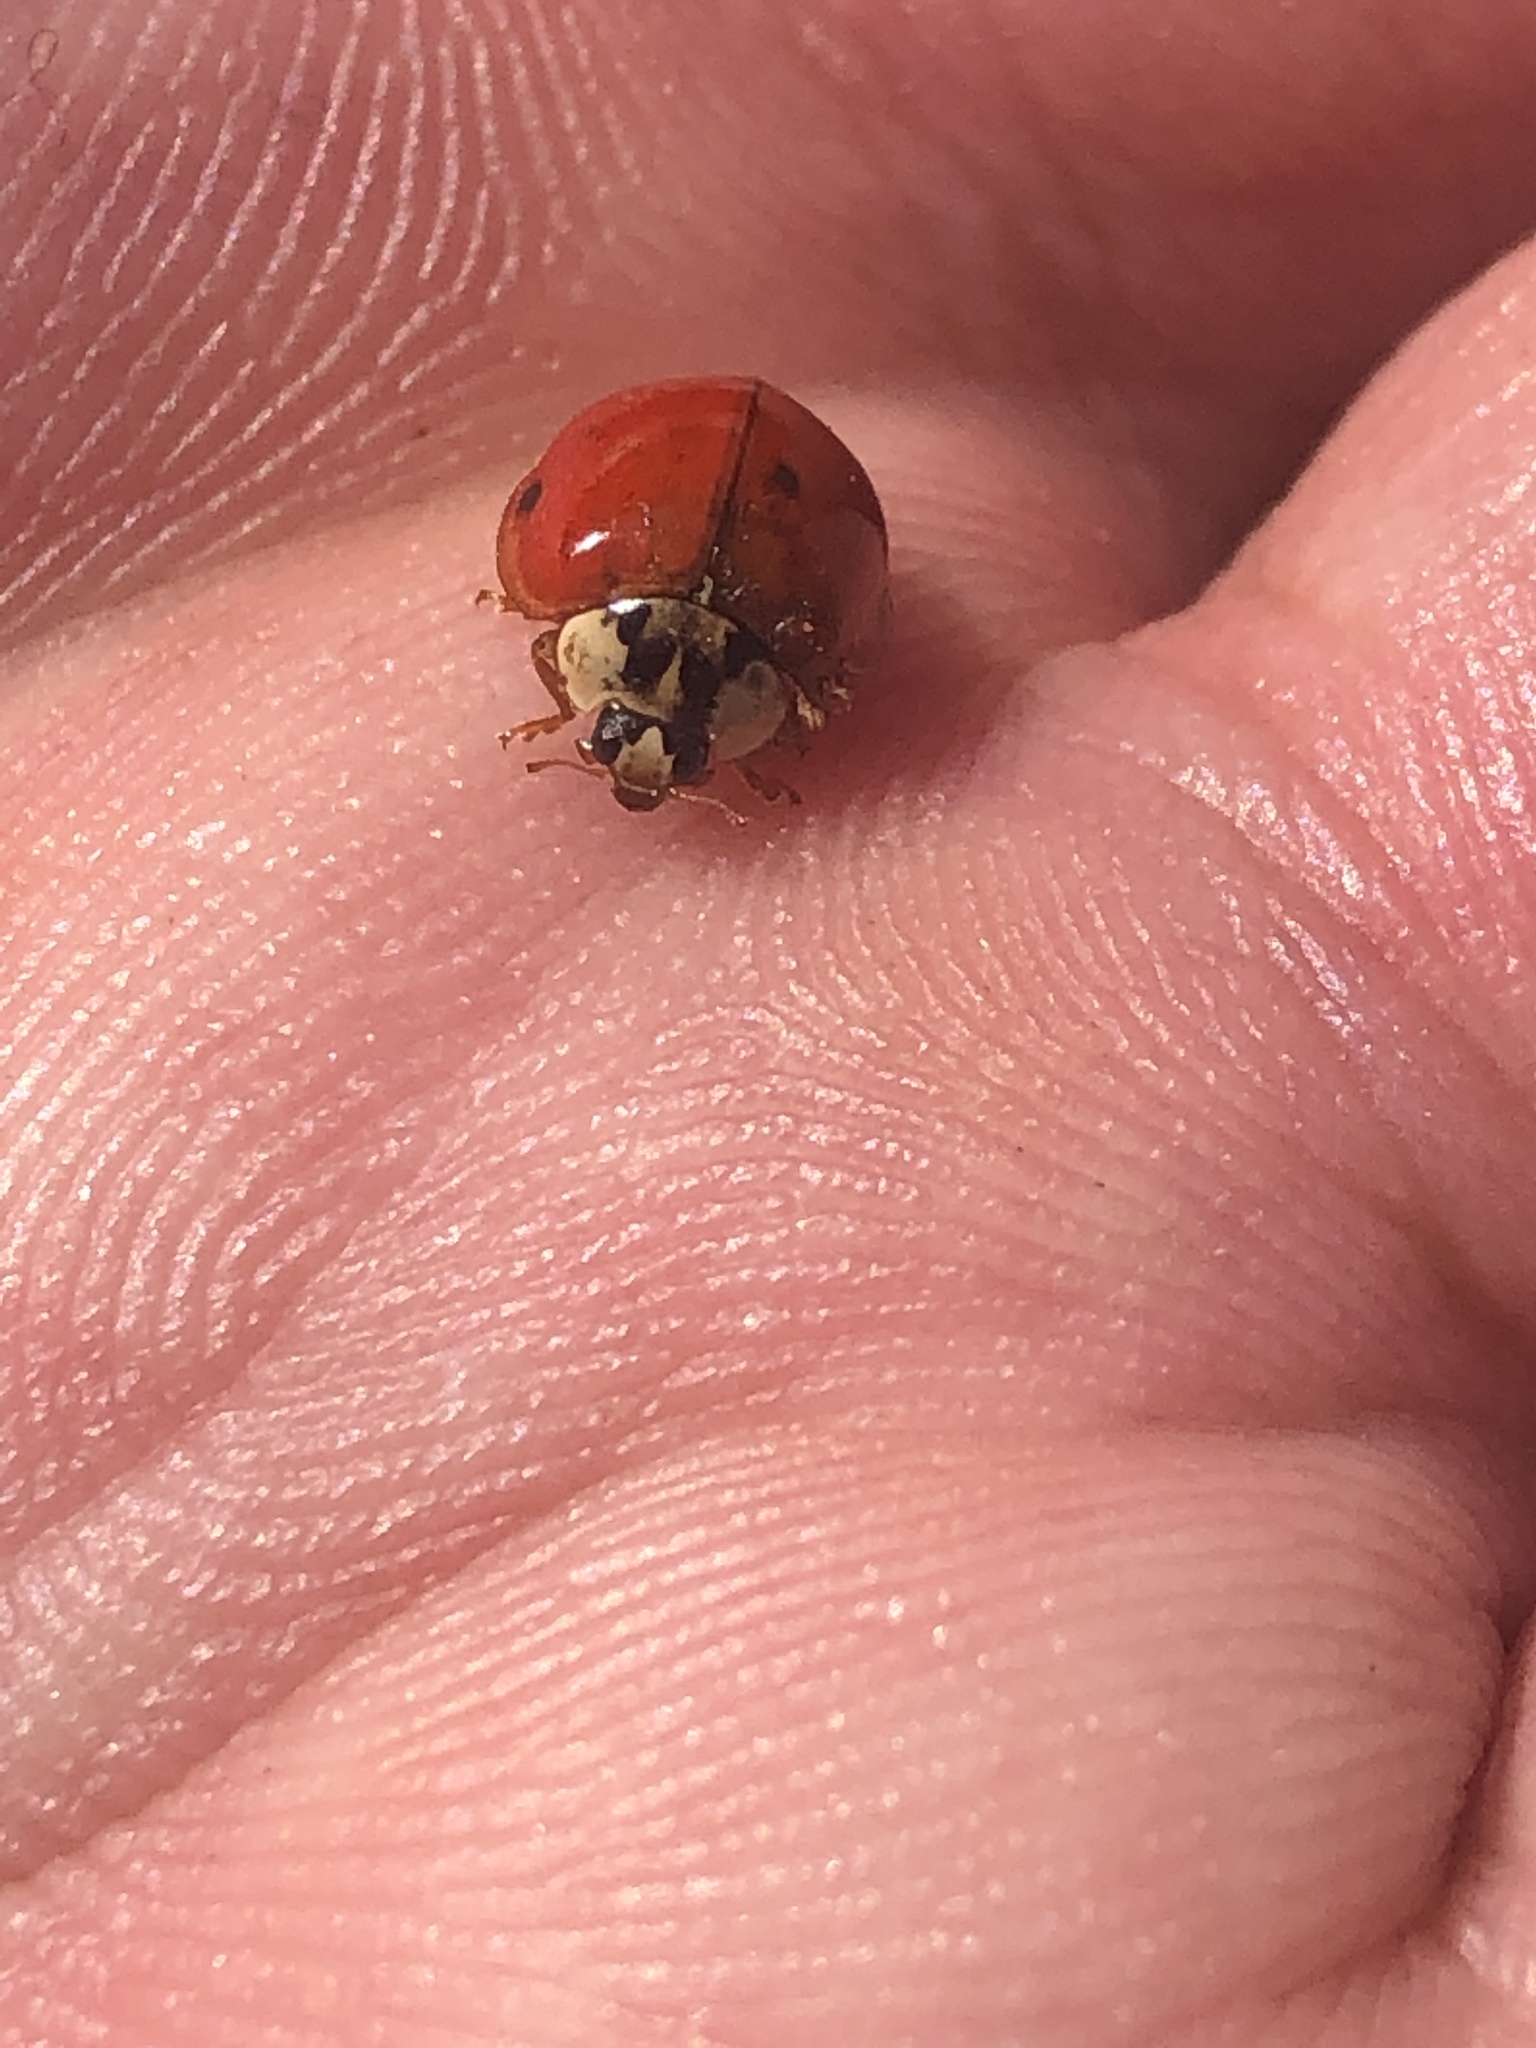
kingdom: Animalia
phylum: Arthropoda
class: Insecta
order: Coleoptera
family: Coccinellidae
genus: Harmonia
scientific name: Harmonia axyridis
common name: Harlequin ladybird
